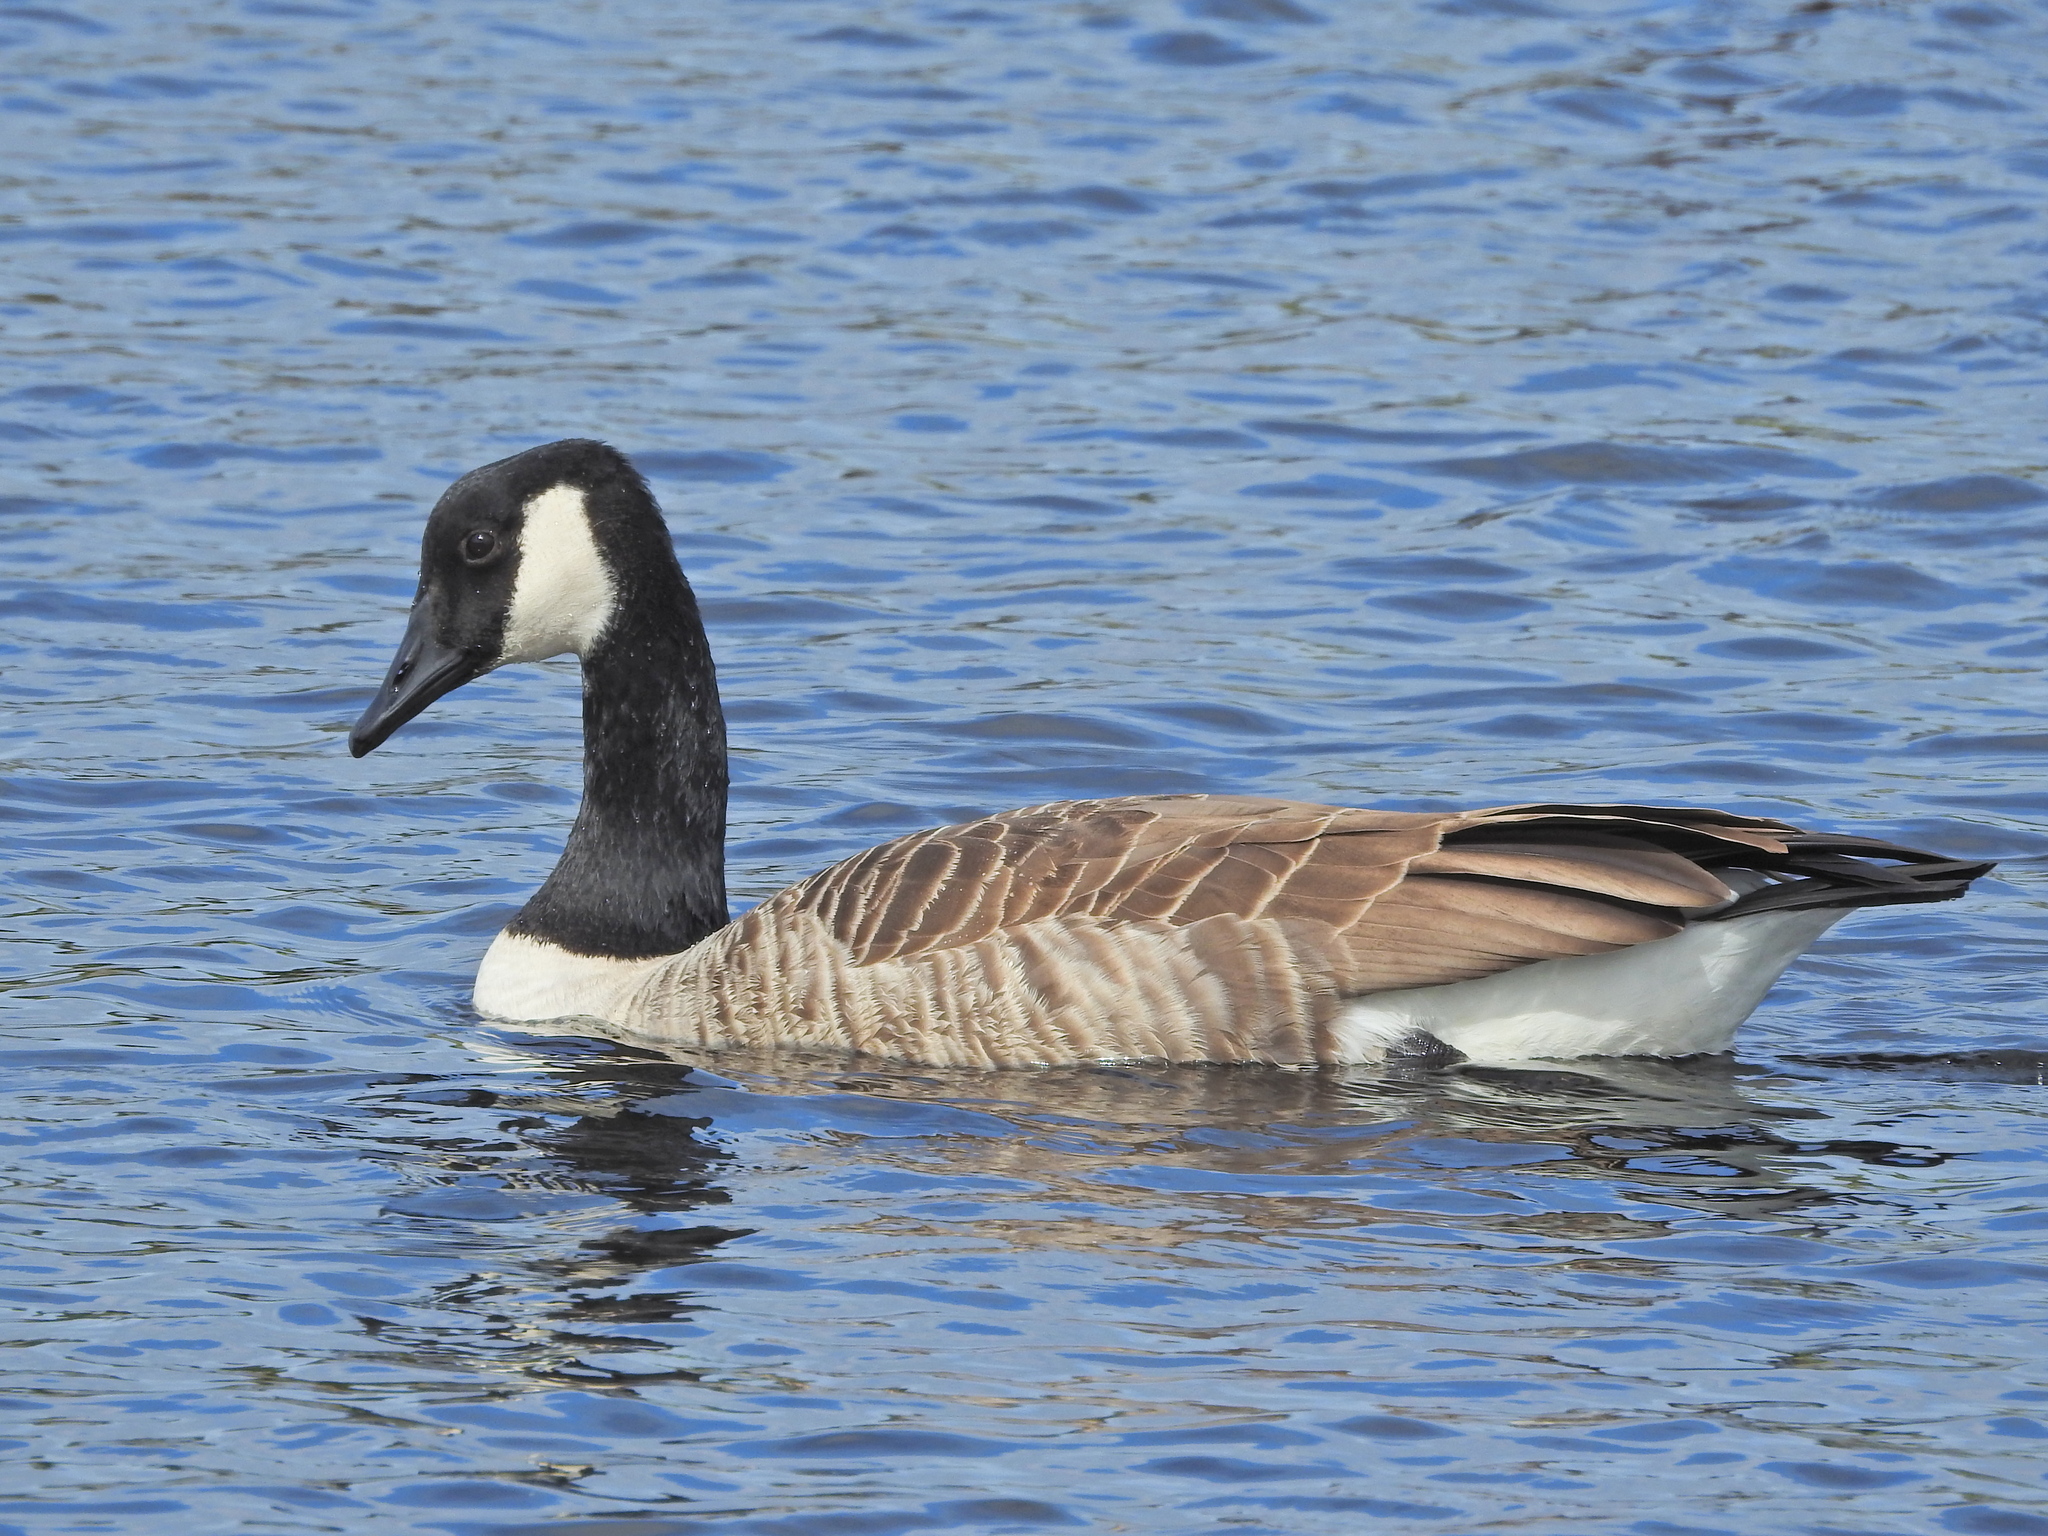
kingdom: Animalia
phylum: Chordata
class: Aves
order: Anseriformes
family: Anatidae
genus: Branta
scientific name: Branta canadensis
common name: Canada goose
